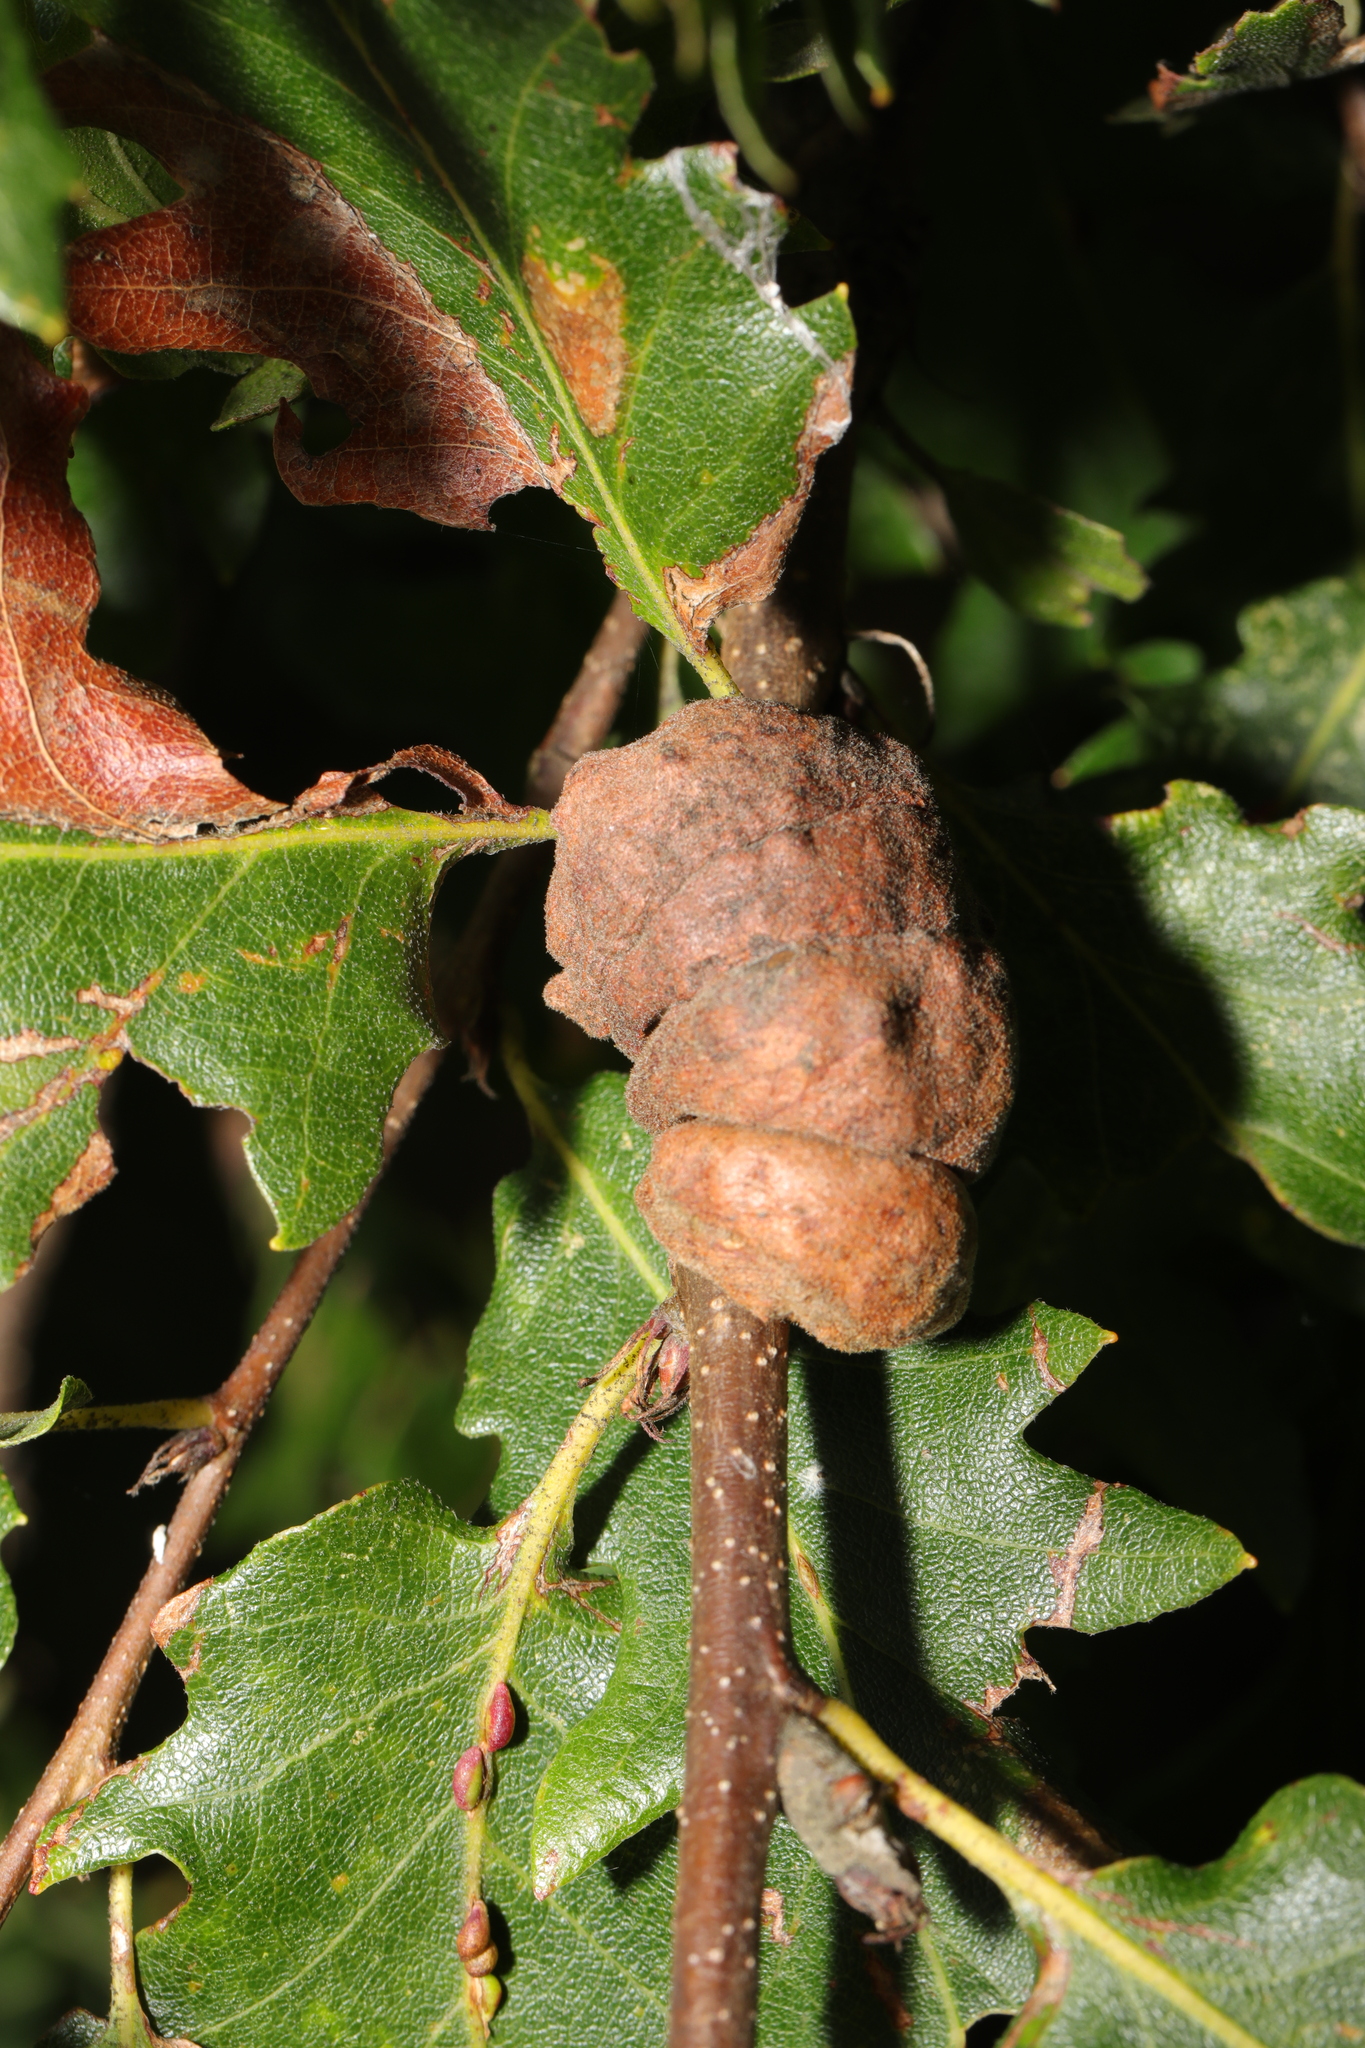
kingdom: Animalia
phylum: Arthropoda
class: Insecta
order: Hymenoptera
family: Cynipidae
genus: Aphelonyx
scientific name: Aphelonyx cerricola
